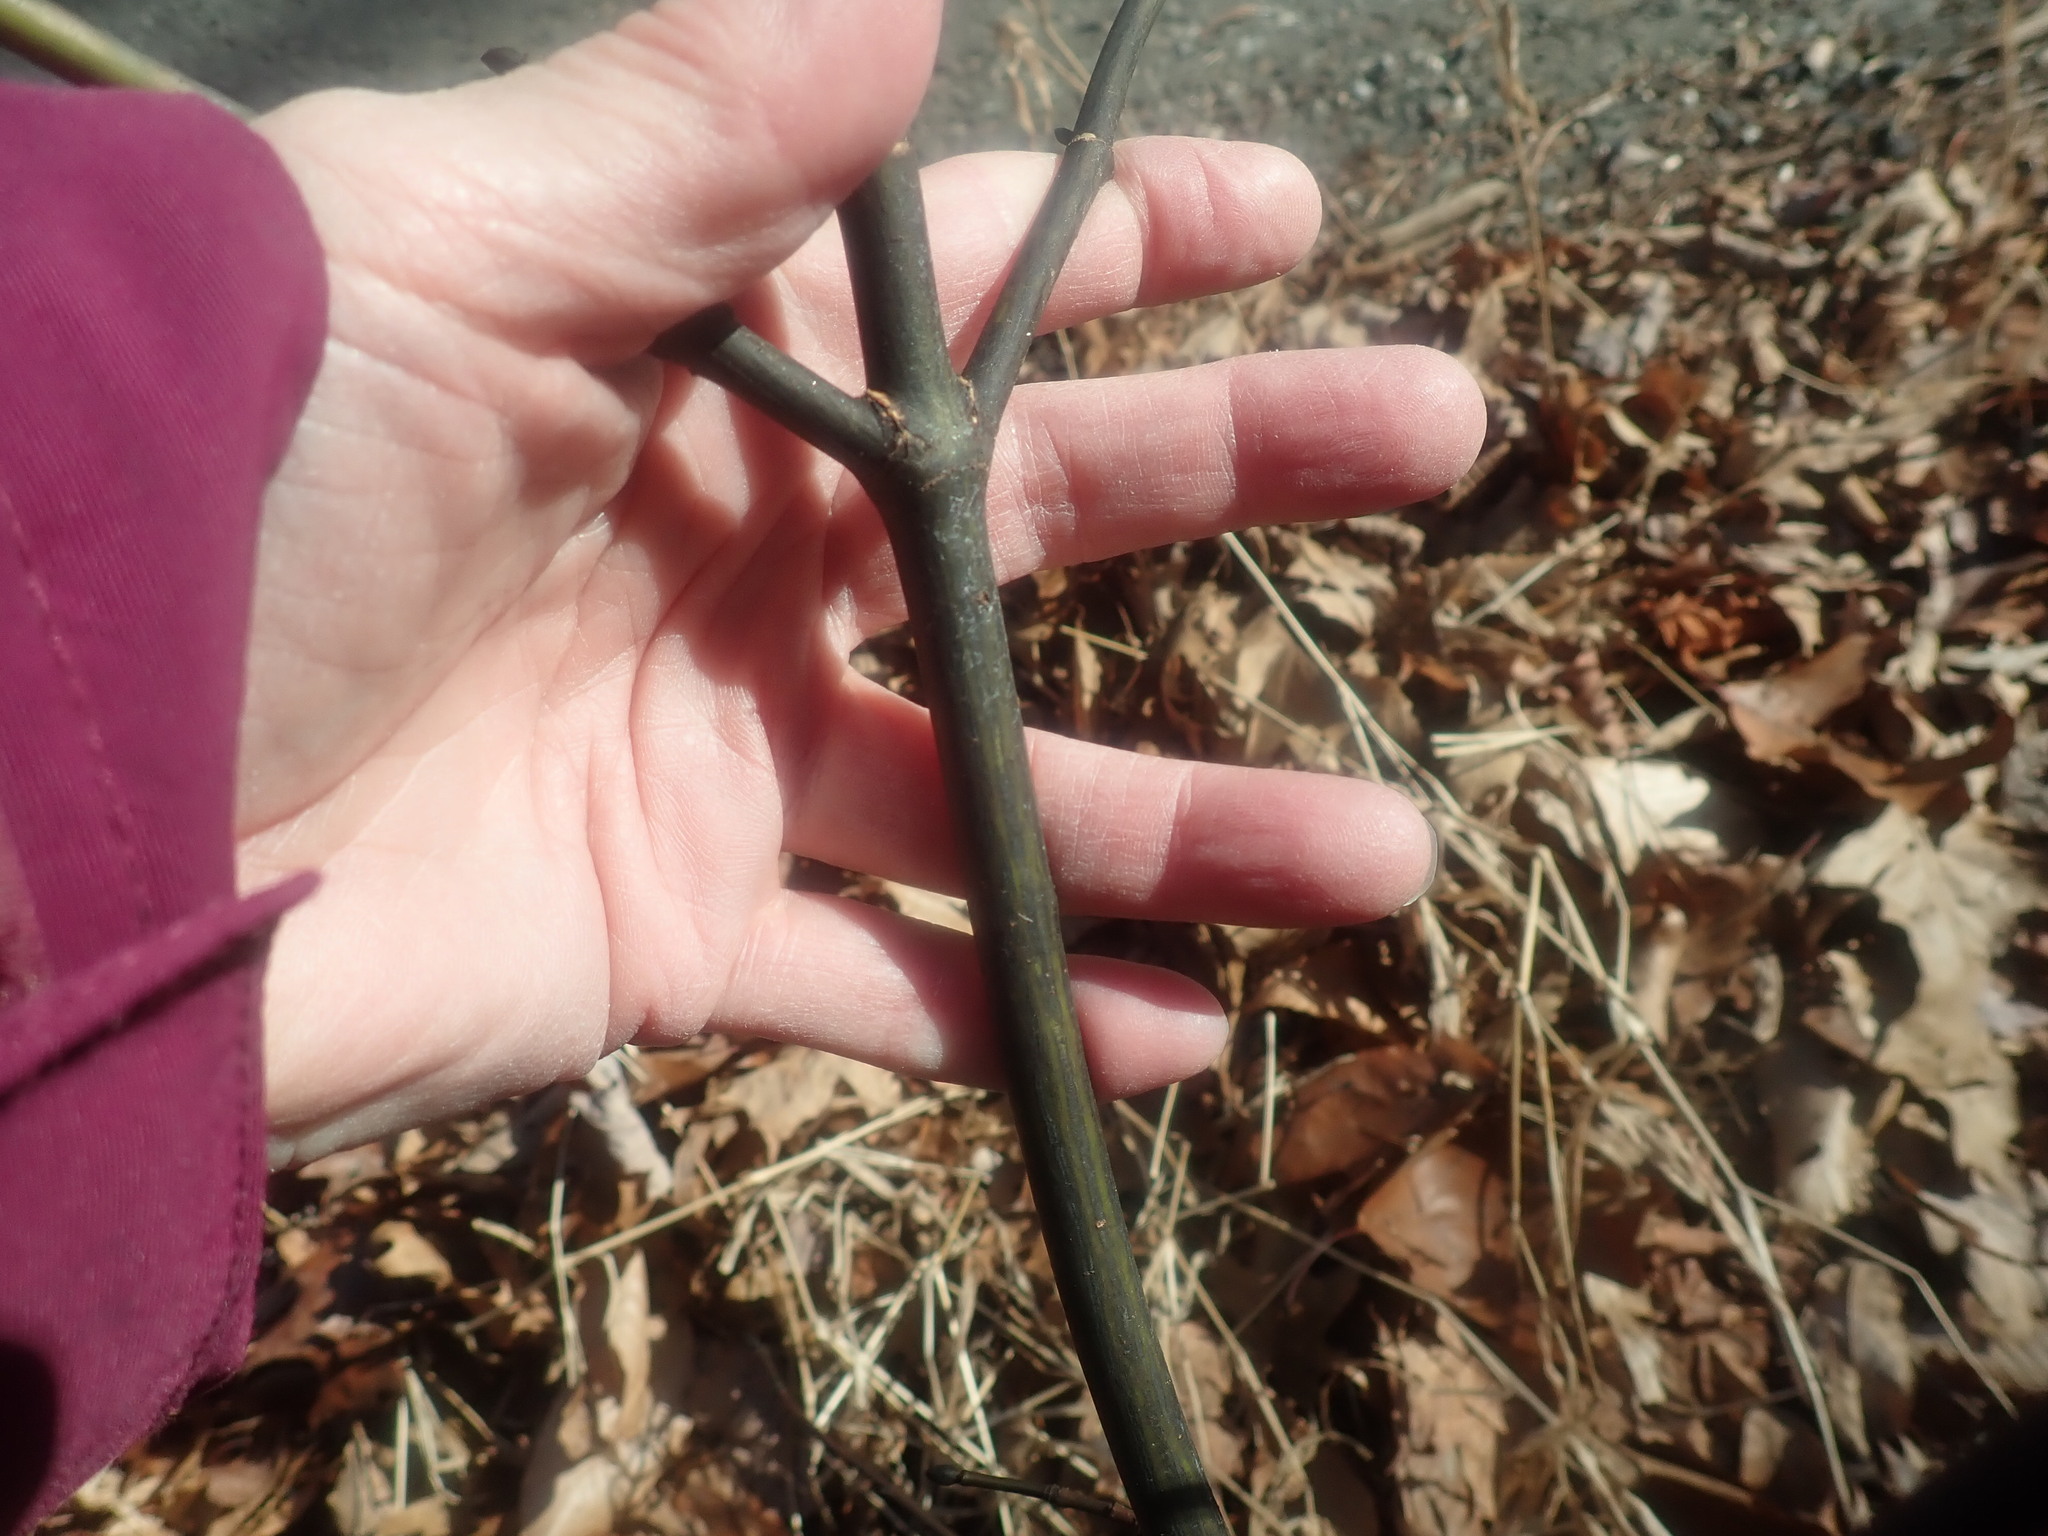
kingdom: Plantae
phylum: Tracheophyta
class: Magnoliopsida
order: Sapindales
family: Sapindaceae
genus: Acer
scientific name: Acer pensylvanicum
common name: Moosewood
